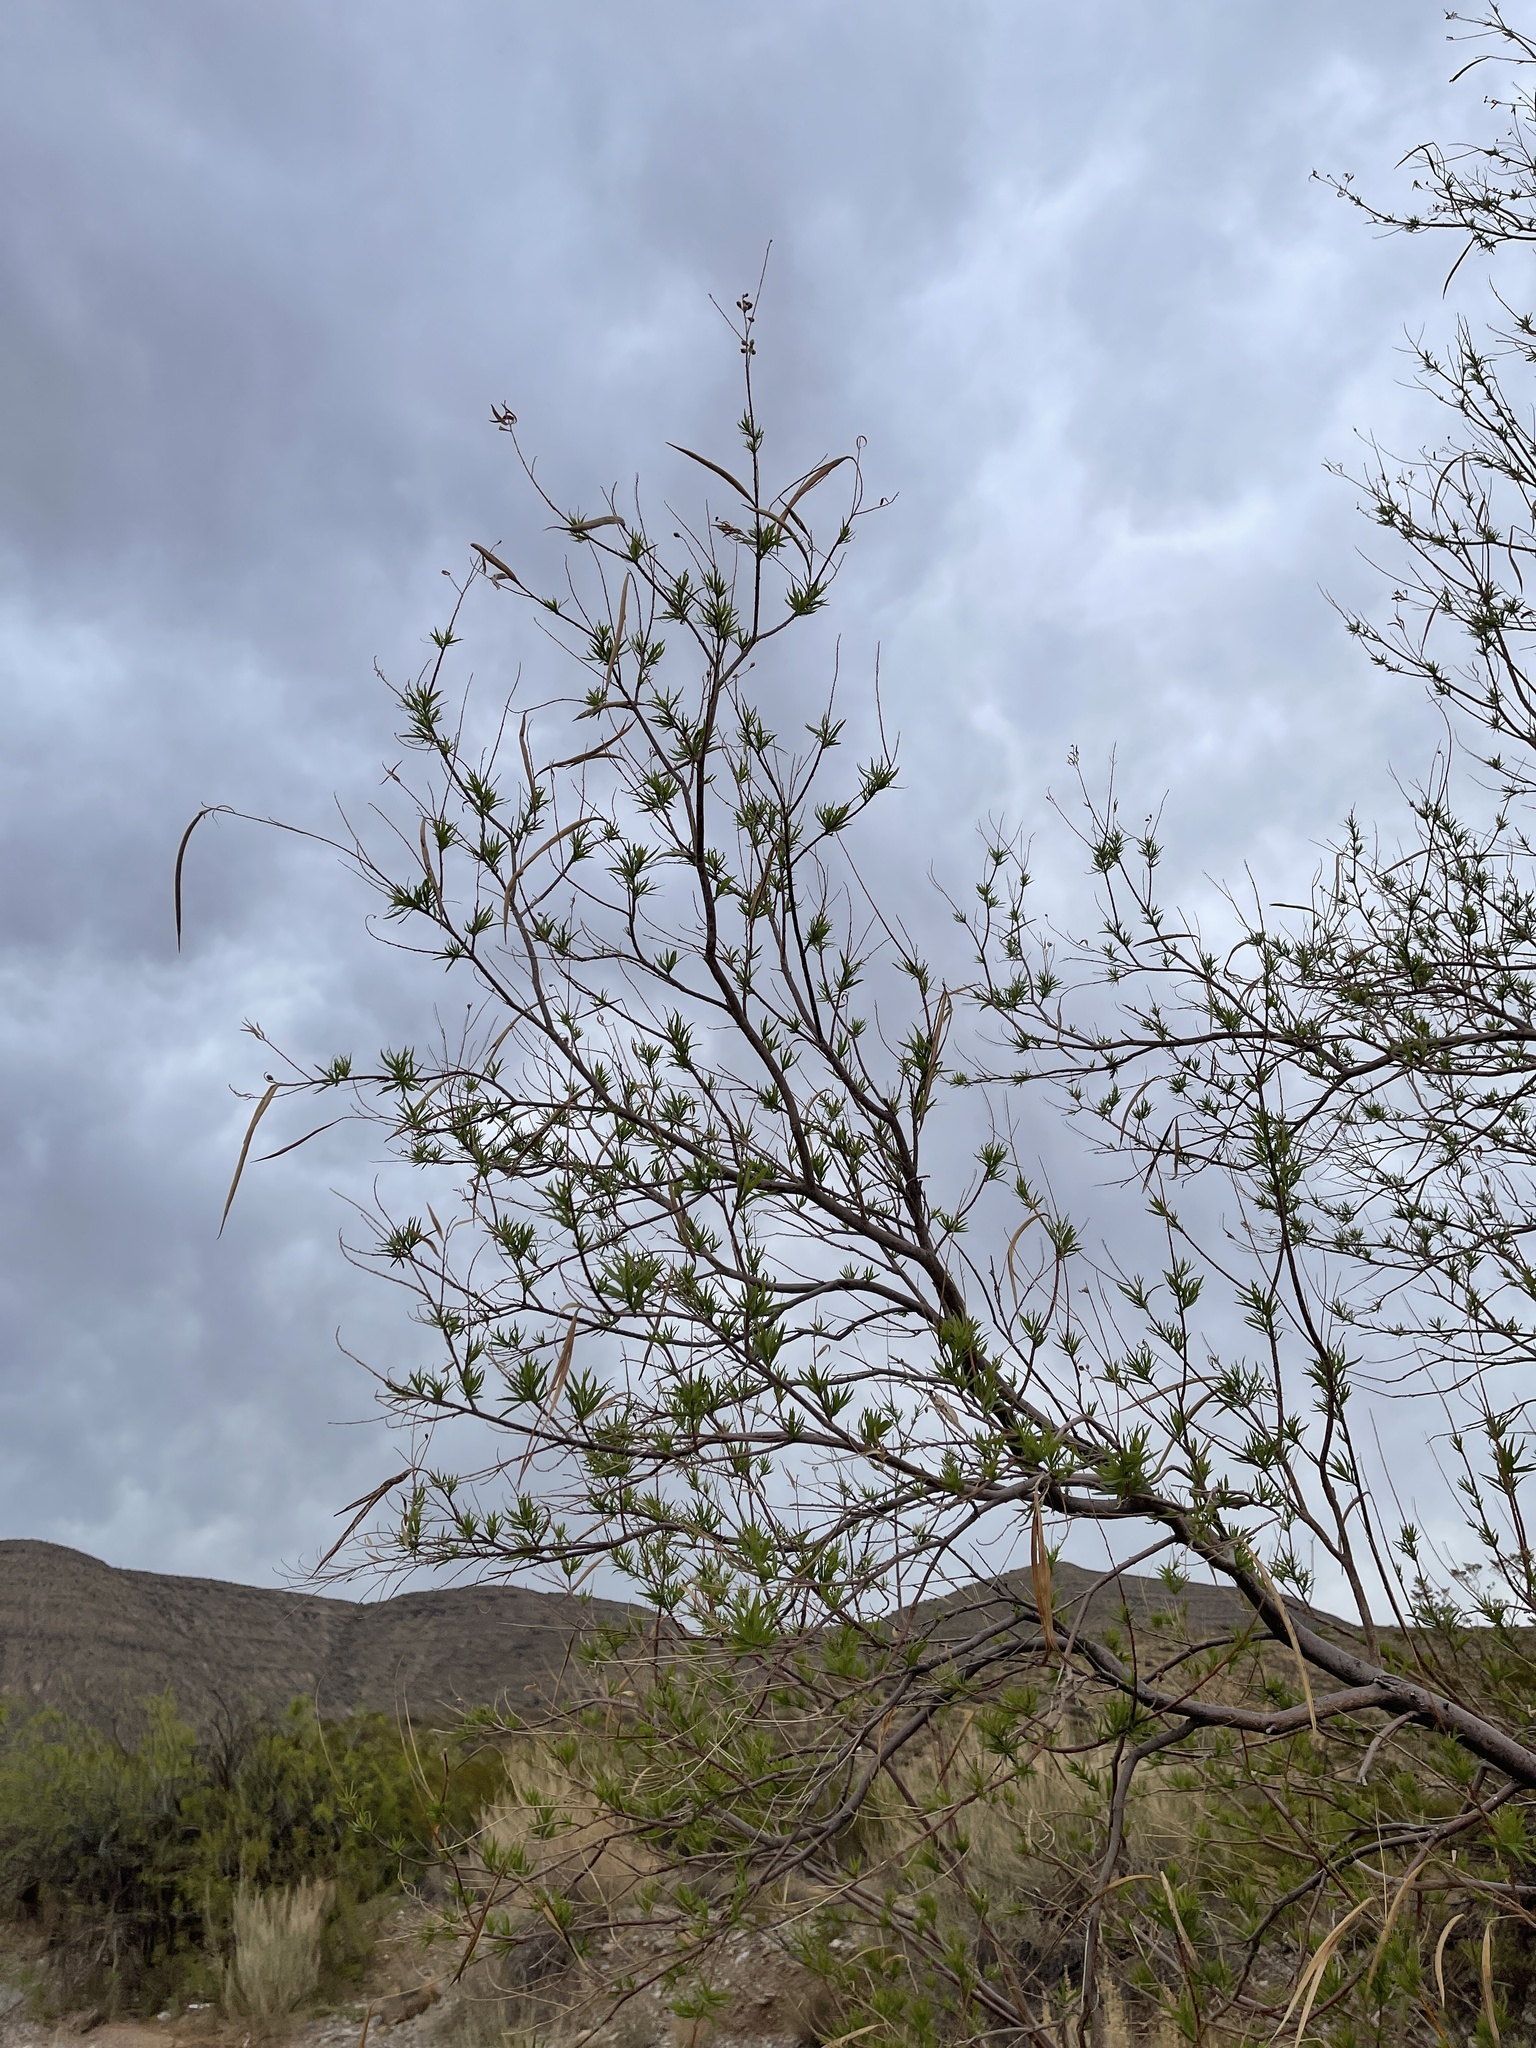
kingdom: Plantae
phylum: Tracheophyta
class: Magnoliopsida
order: Lamiales
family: Bignoniaceae
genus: Chilopsis
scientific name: Chilopsis linearis
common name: Desert-willow
